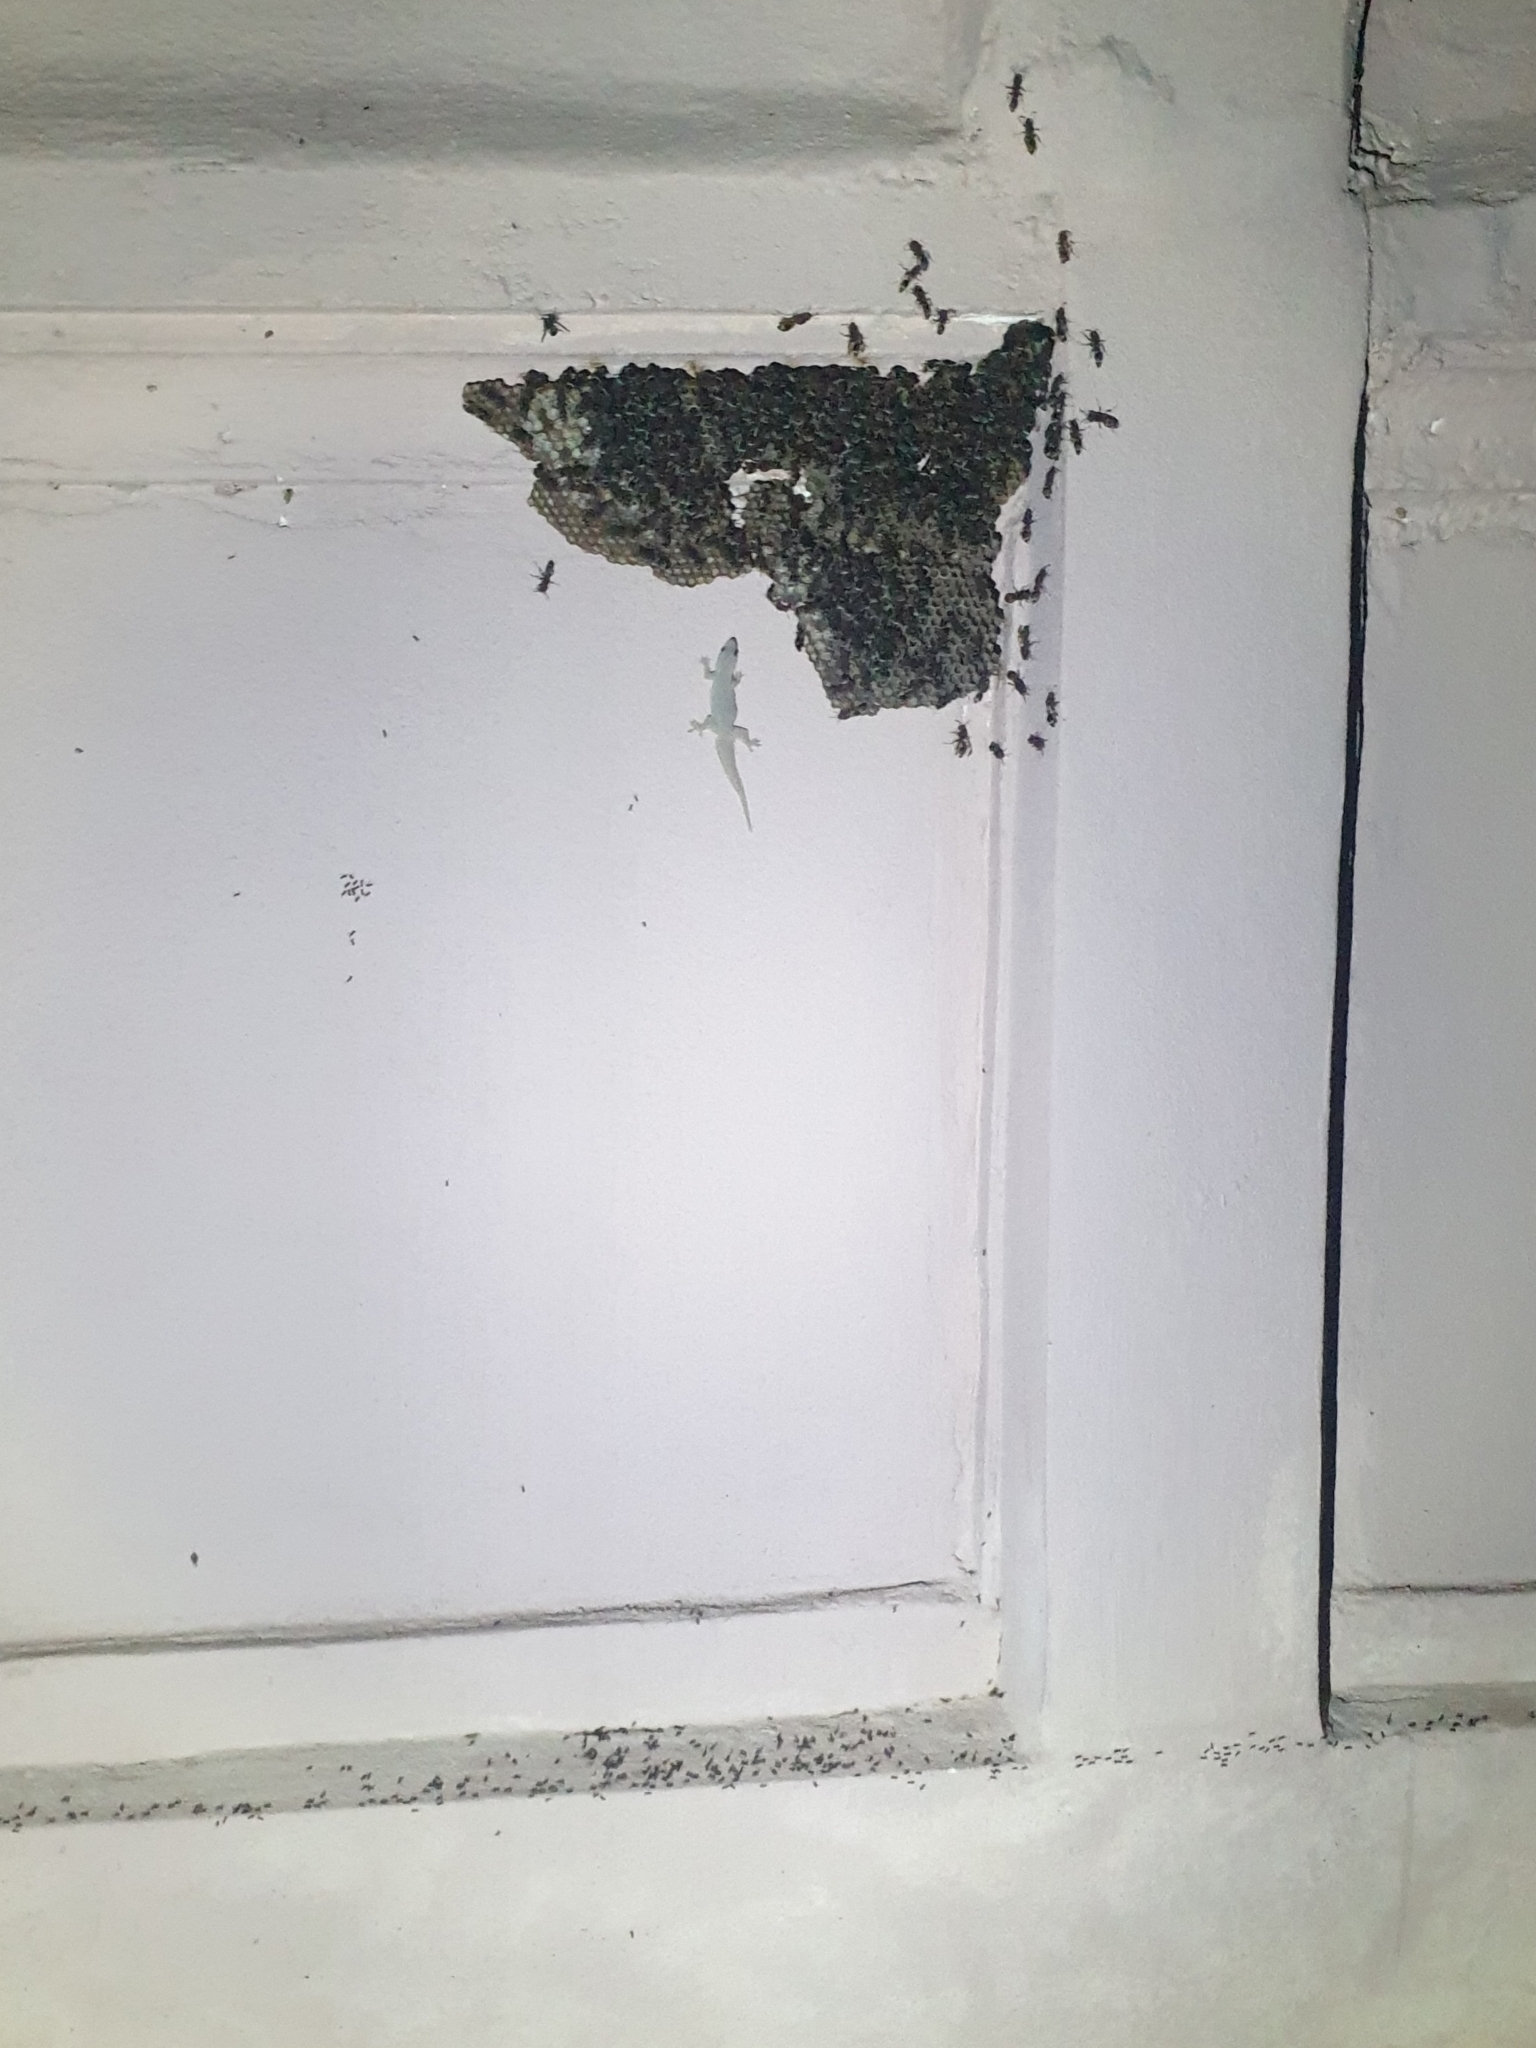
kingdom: Animalia
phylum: Arthropoda
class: Insecta
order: Hymenoptera
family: Formicidae
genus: Dolichoderus
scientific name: Dolichoderus thoracicus
